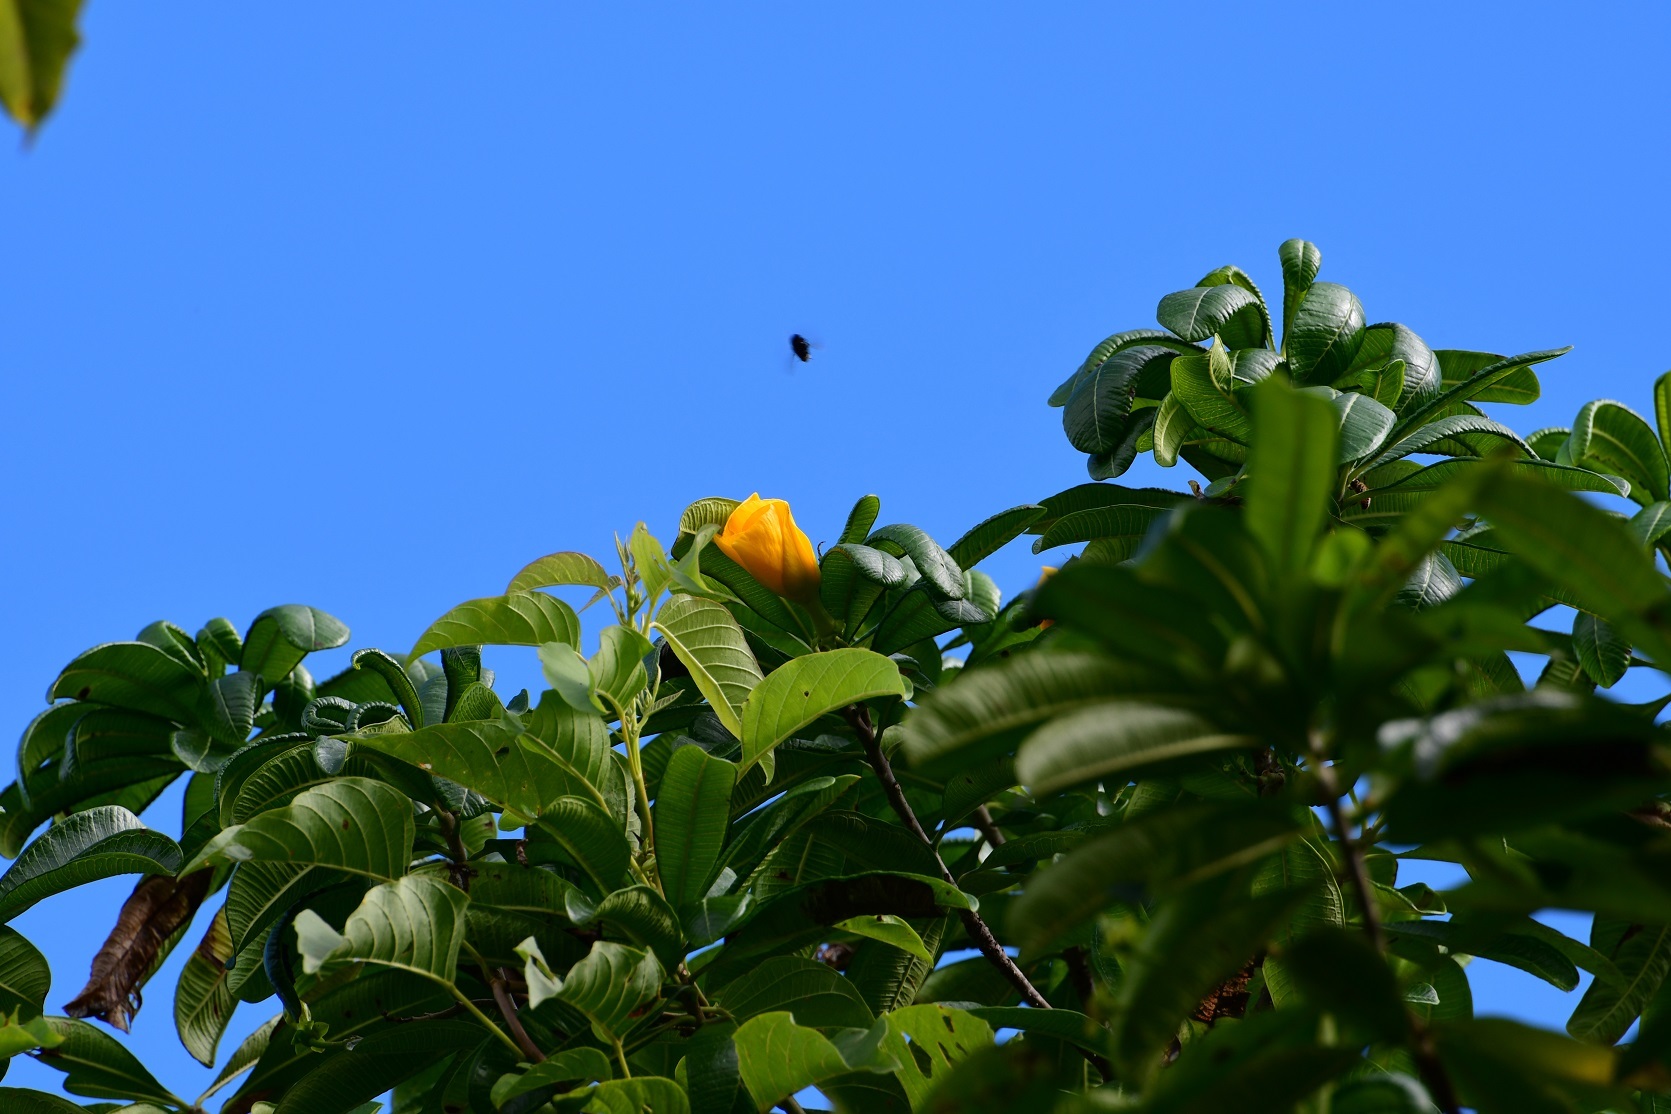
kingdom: Plantae
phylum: Tracheophyta
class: Magnoliopsida
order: Gentianales
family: Apocynaceae
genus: Cascabela
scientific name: Cascabela ovata
